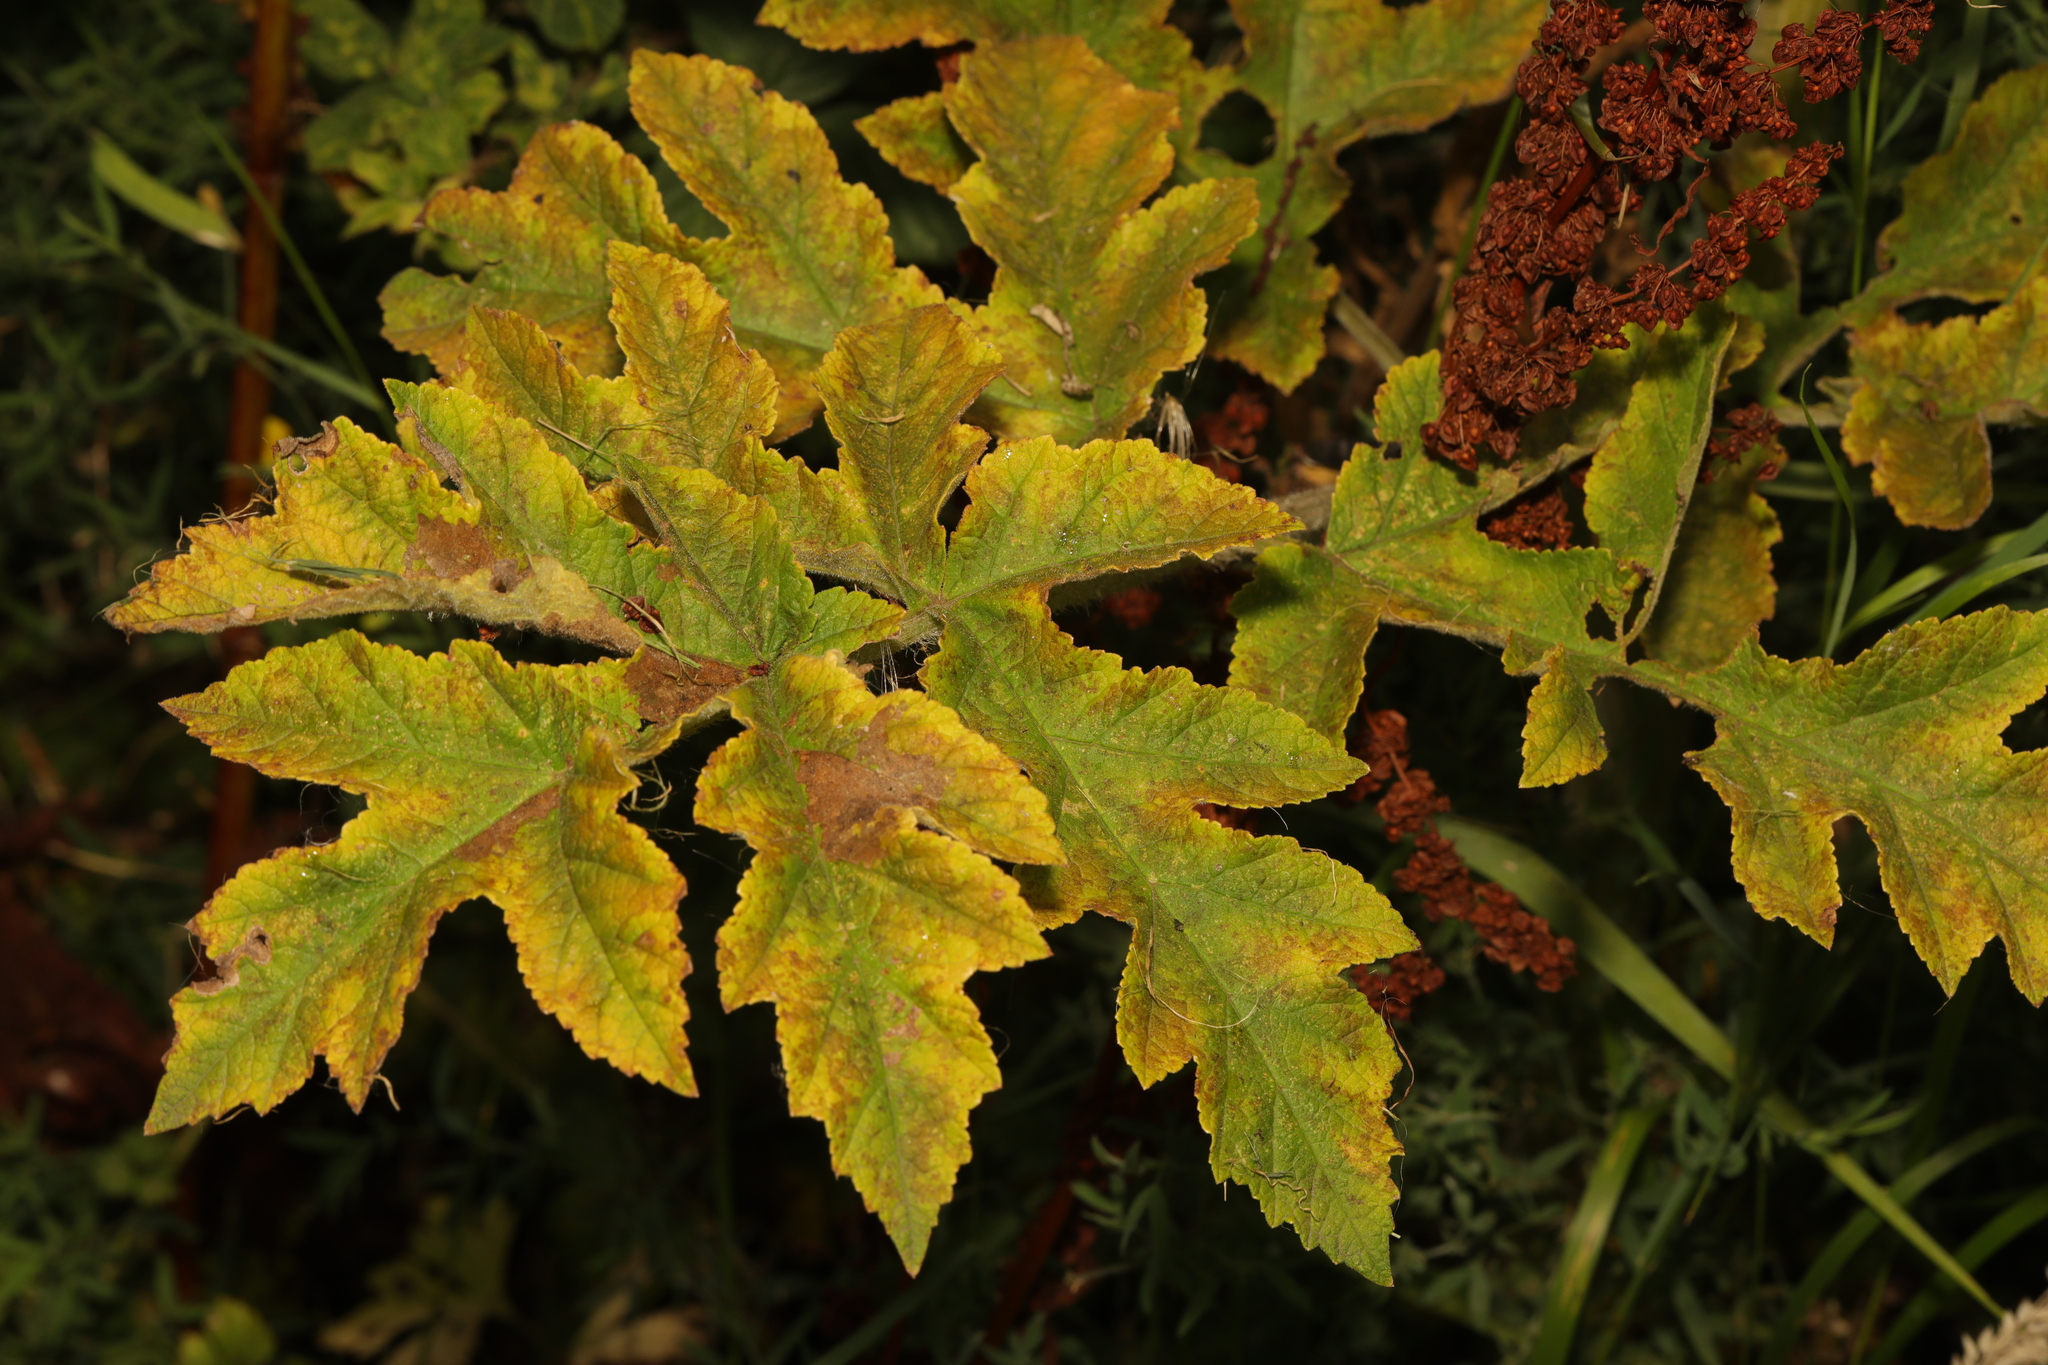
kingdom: Plantae
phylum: Tracheophyta
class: Magnoliopsida
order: Apiales
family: Apiaceae
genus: Heracleum
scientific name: Heracleum sphondylium
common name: Hogweed
